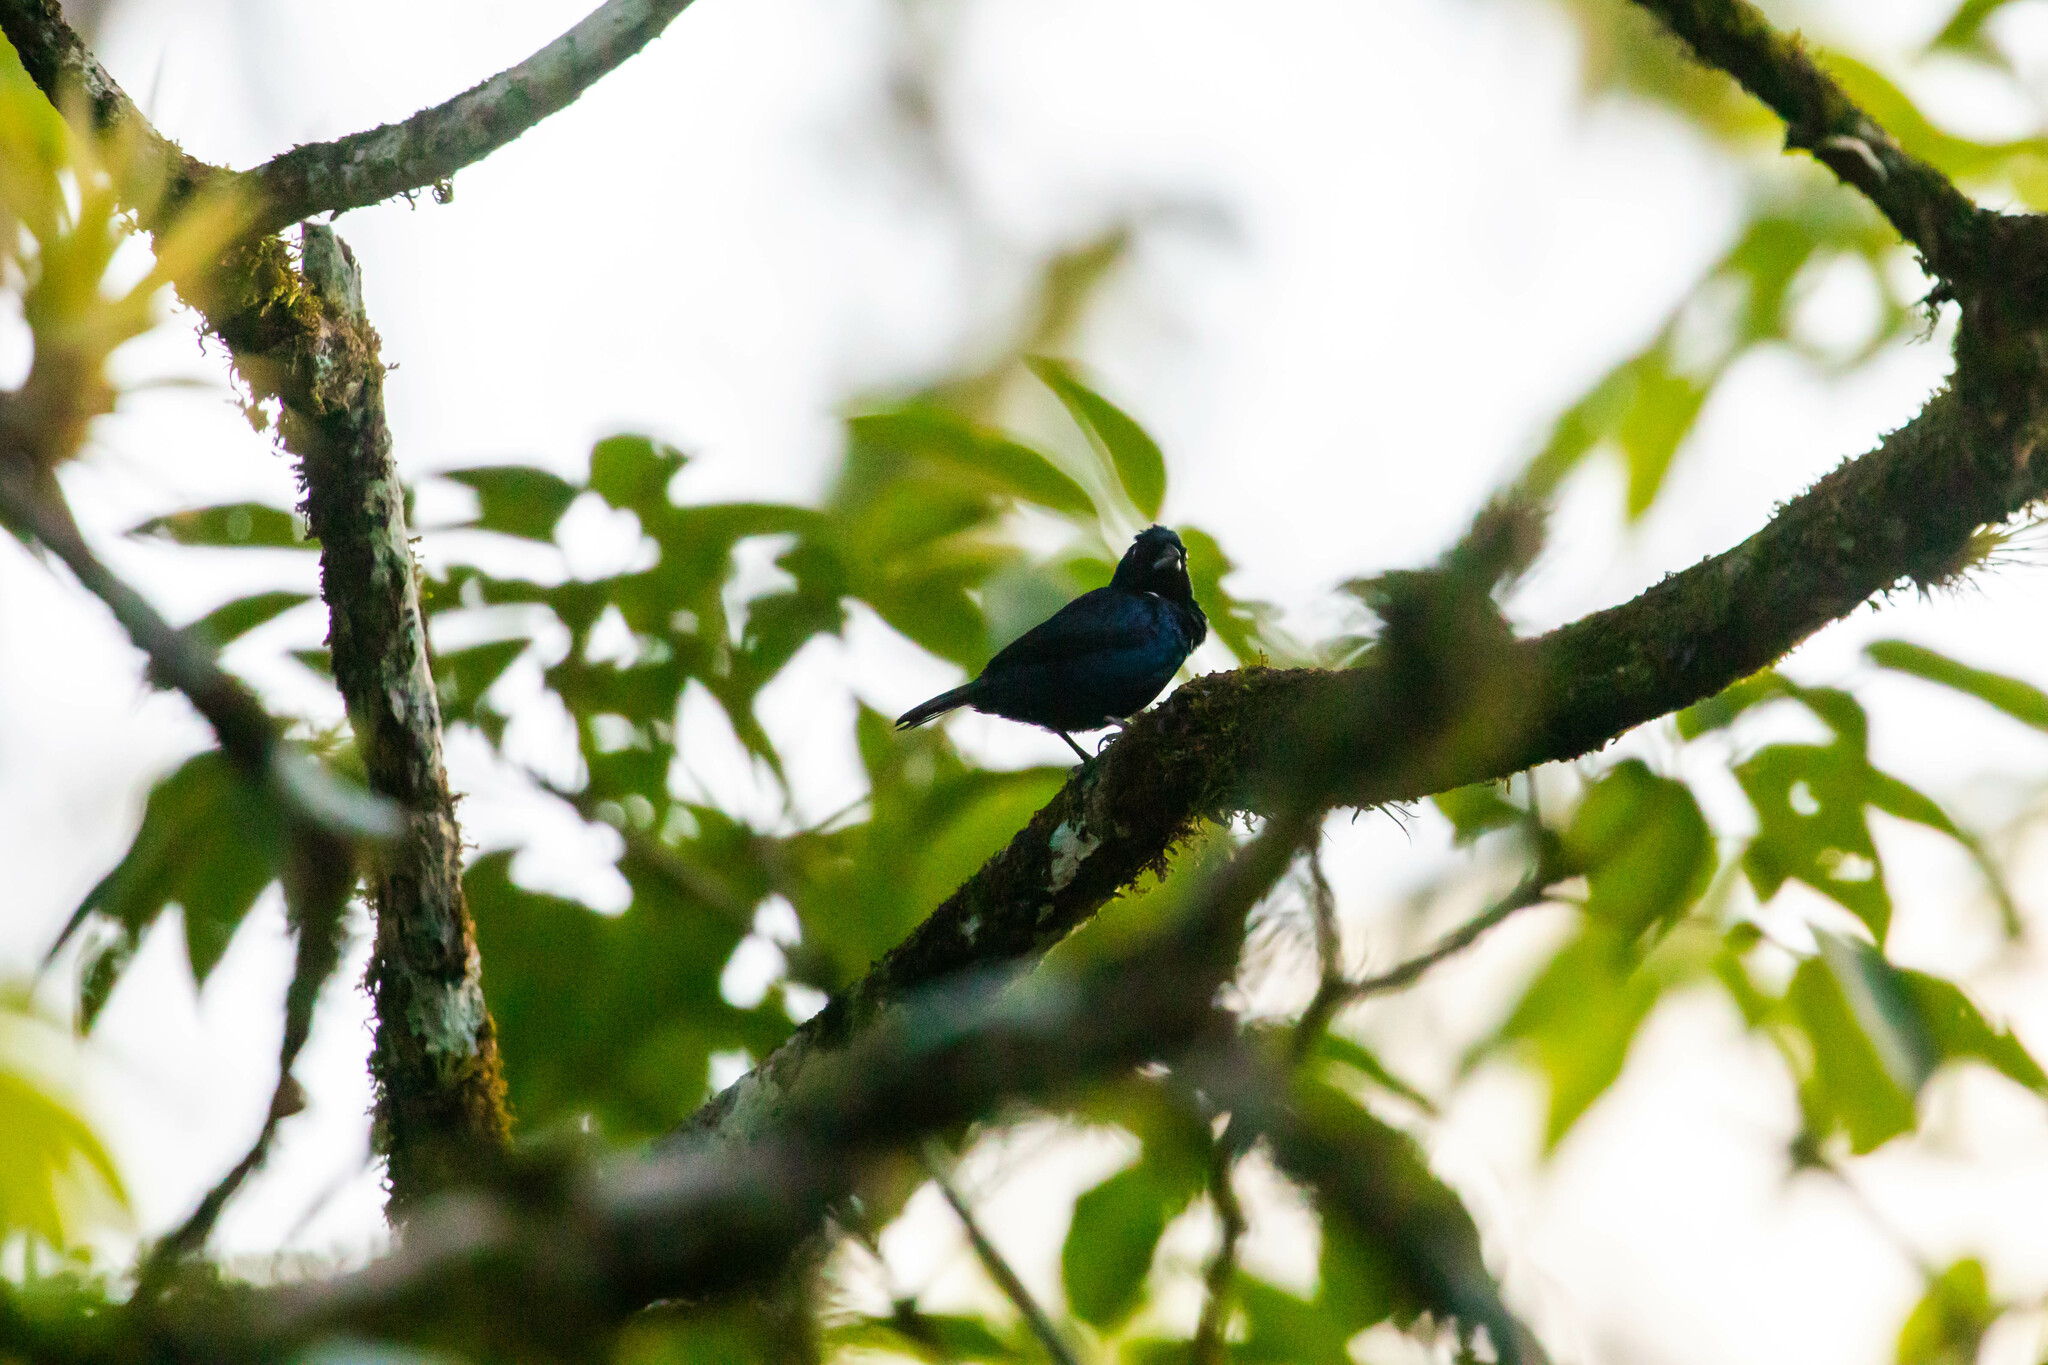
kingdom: Animalia
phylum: Chordata
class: Aves
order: Passeriformes
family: Thraupidae
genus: Volatinia
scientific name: Volatinia jacarina
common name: Blue-black grassquit
